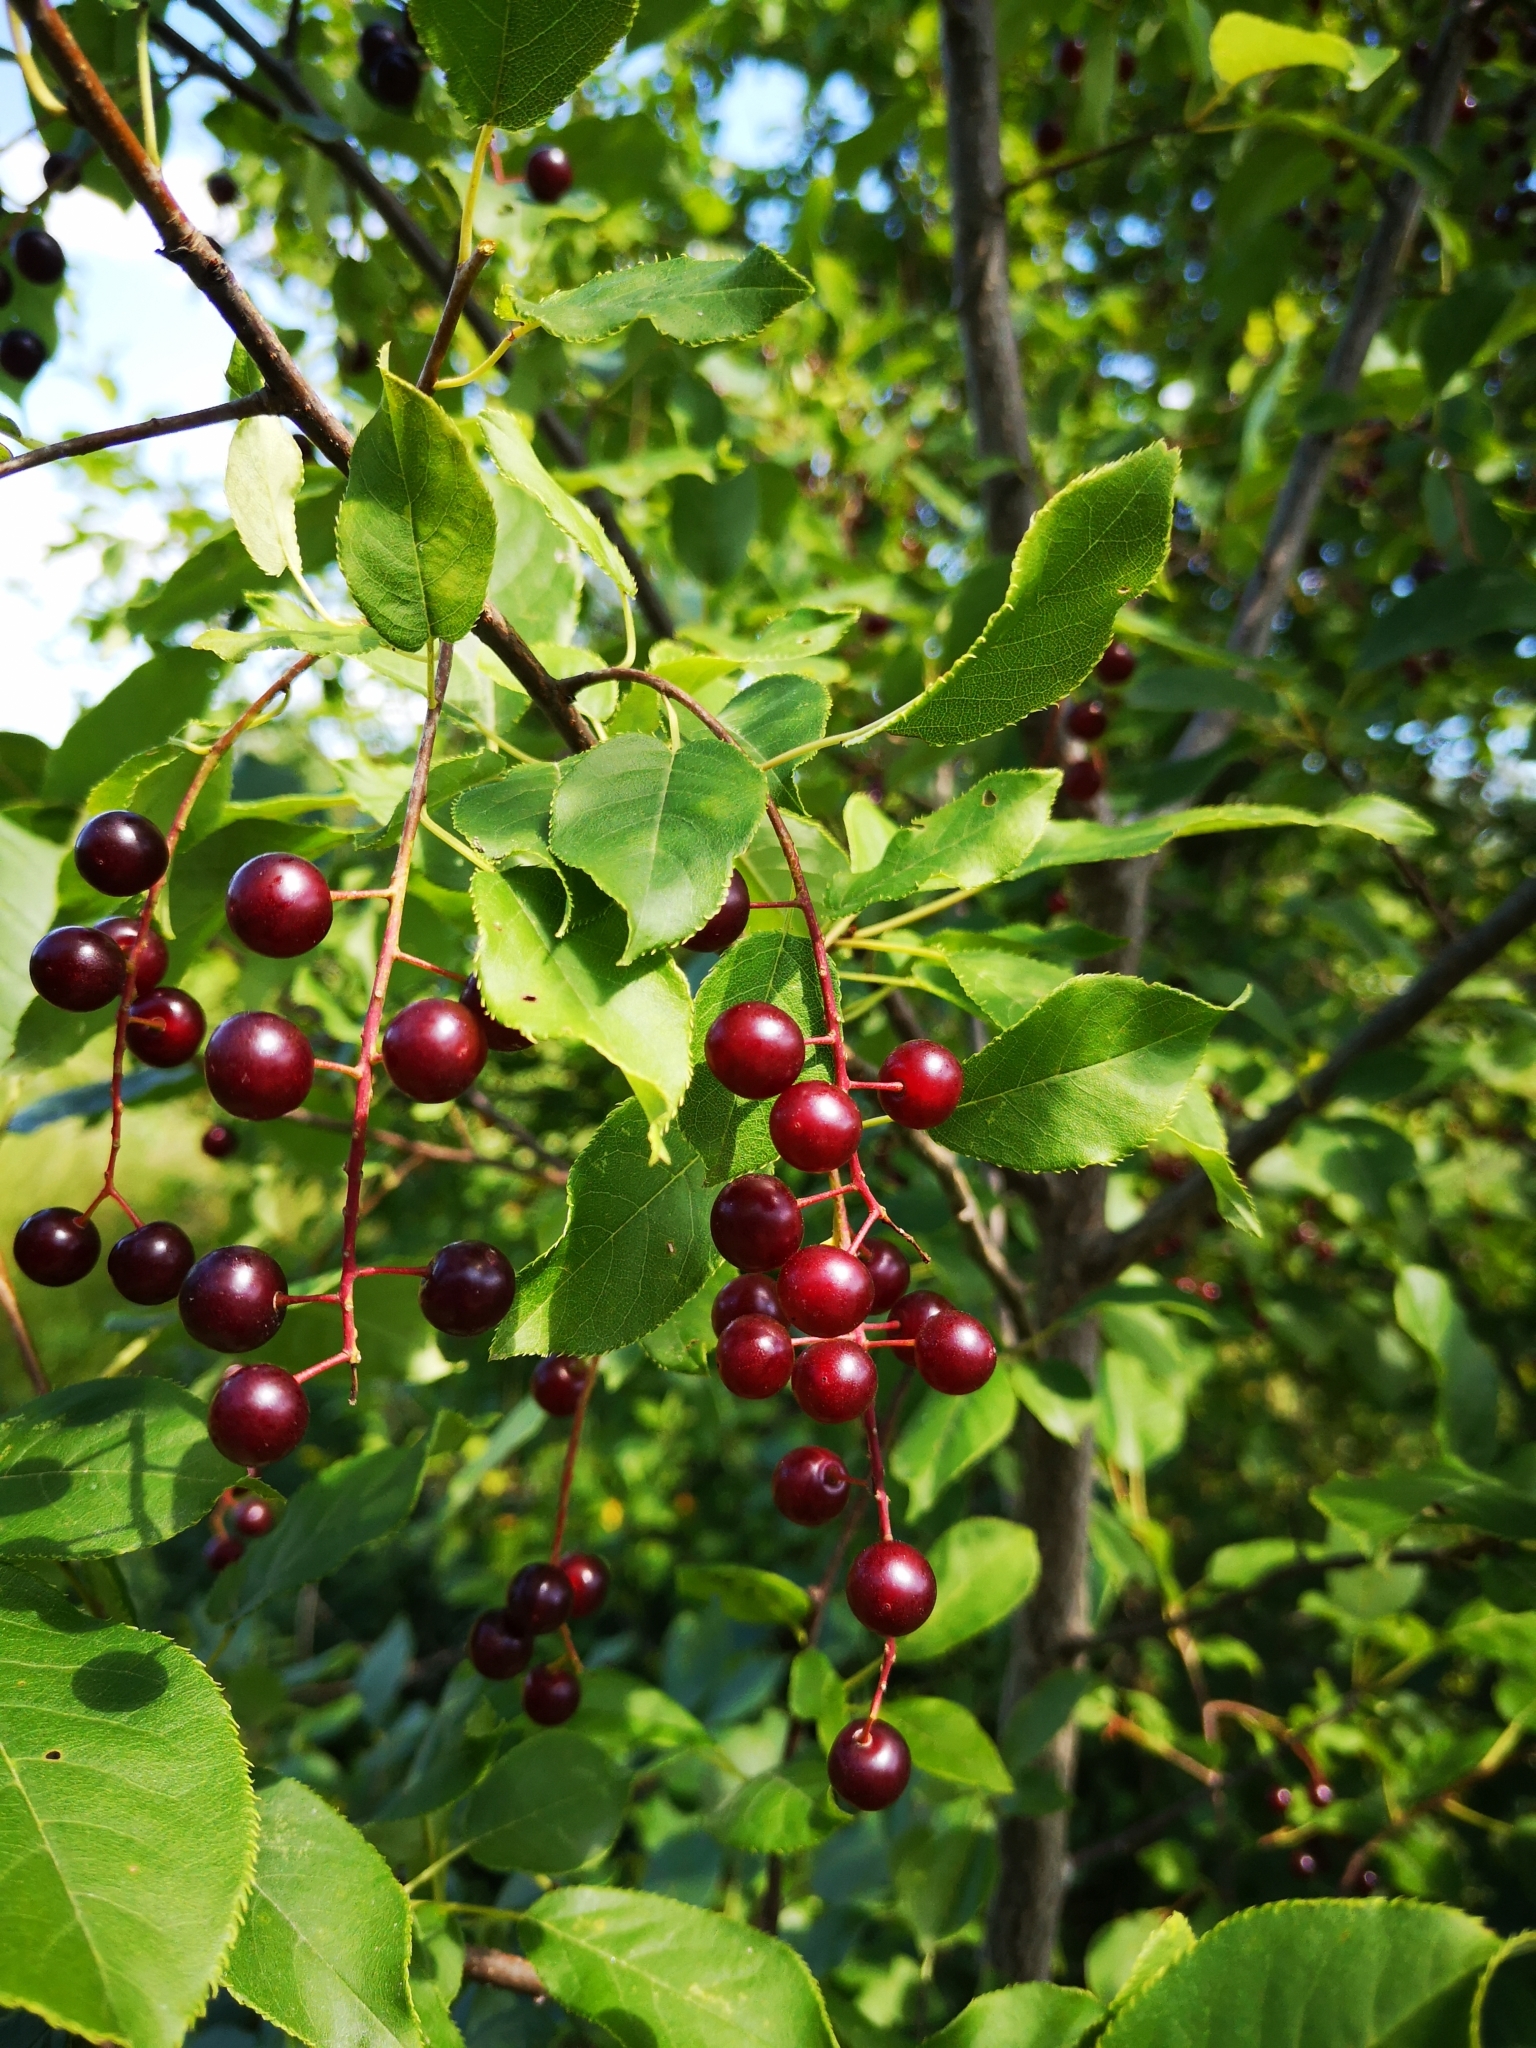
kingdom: Plantae
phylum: Tracheophyta
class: Magnoliopsida
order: Rosales
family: Rosaceae
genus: Prunus
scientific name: Prunus virginiana
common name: Chokecherry
